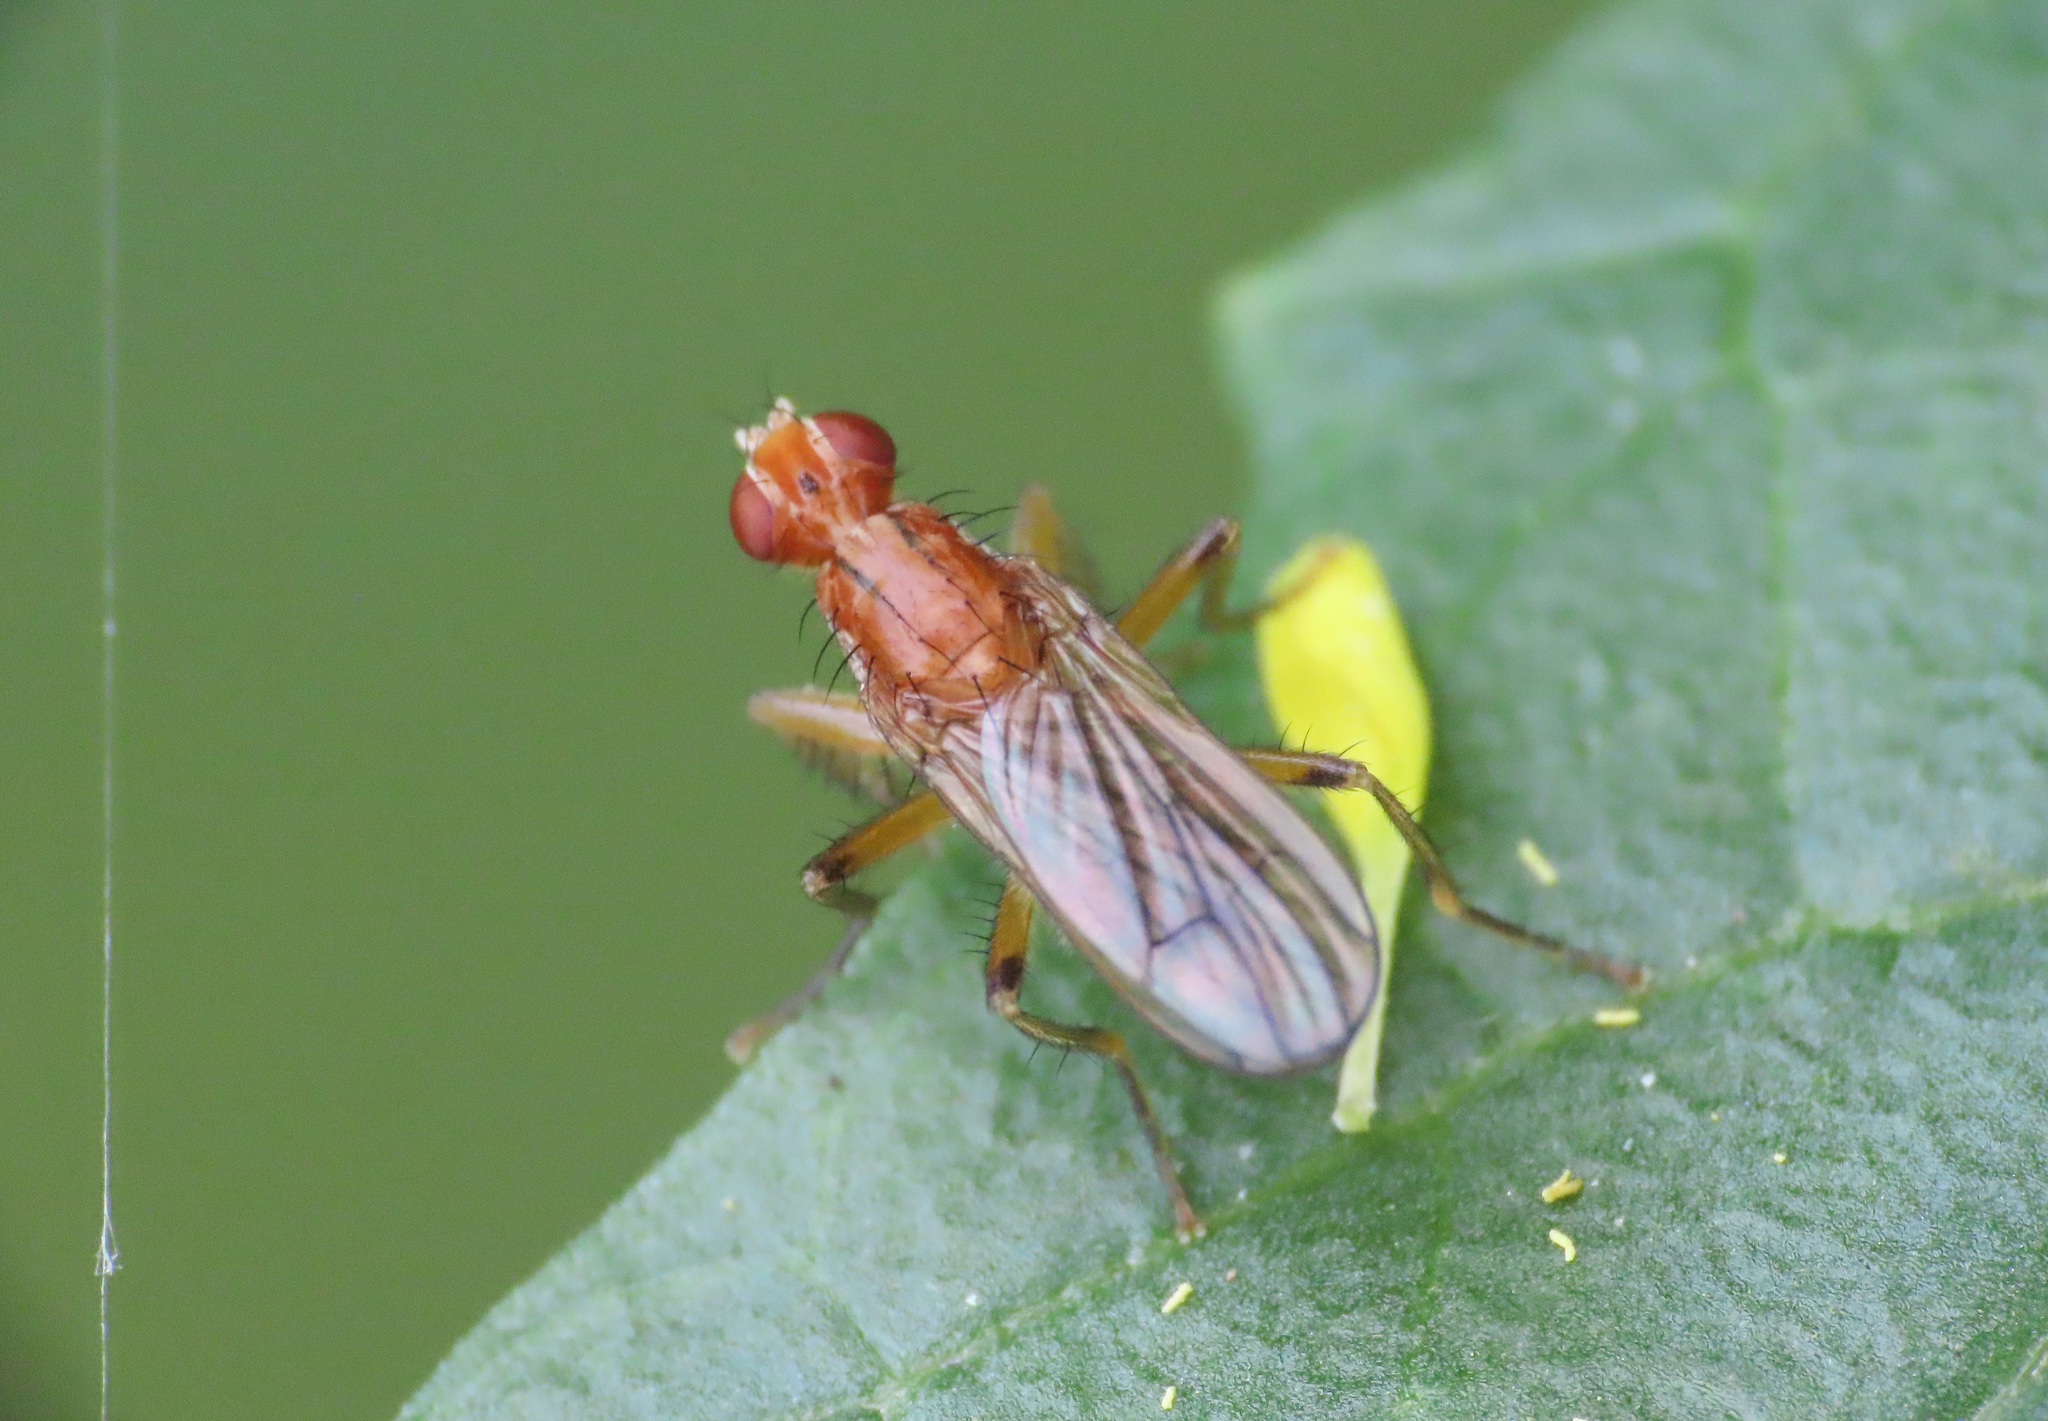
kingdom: Animalia
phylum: Arthropoda
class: Insecta
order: Diptera
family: Scathophagidae
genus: Norellisoma
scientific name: Norellisoma spinimanum
